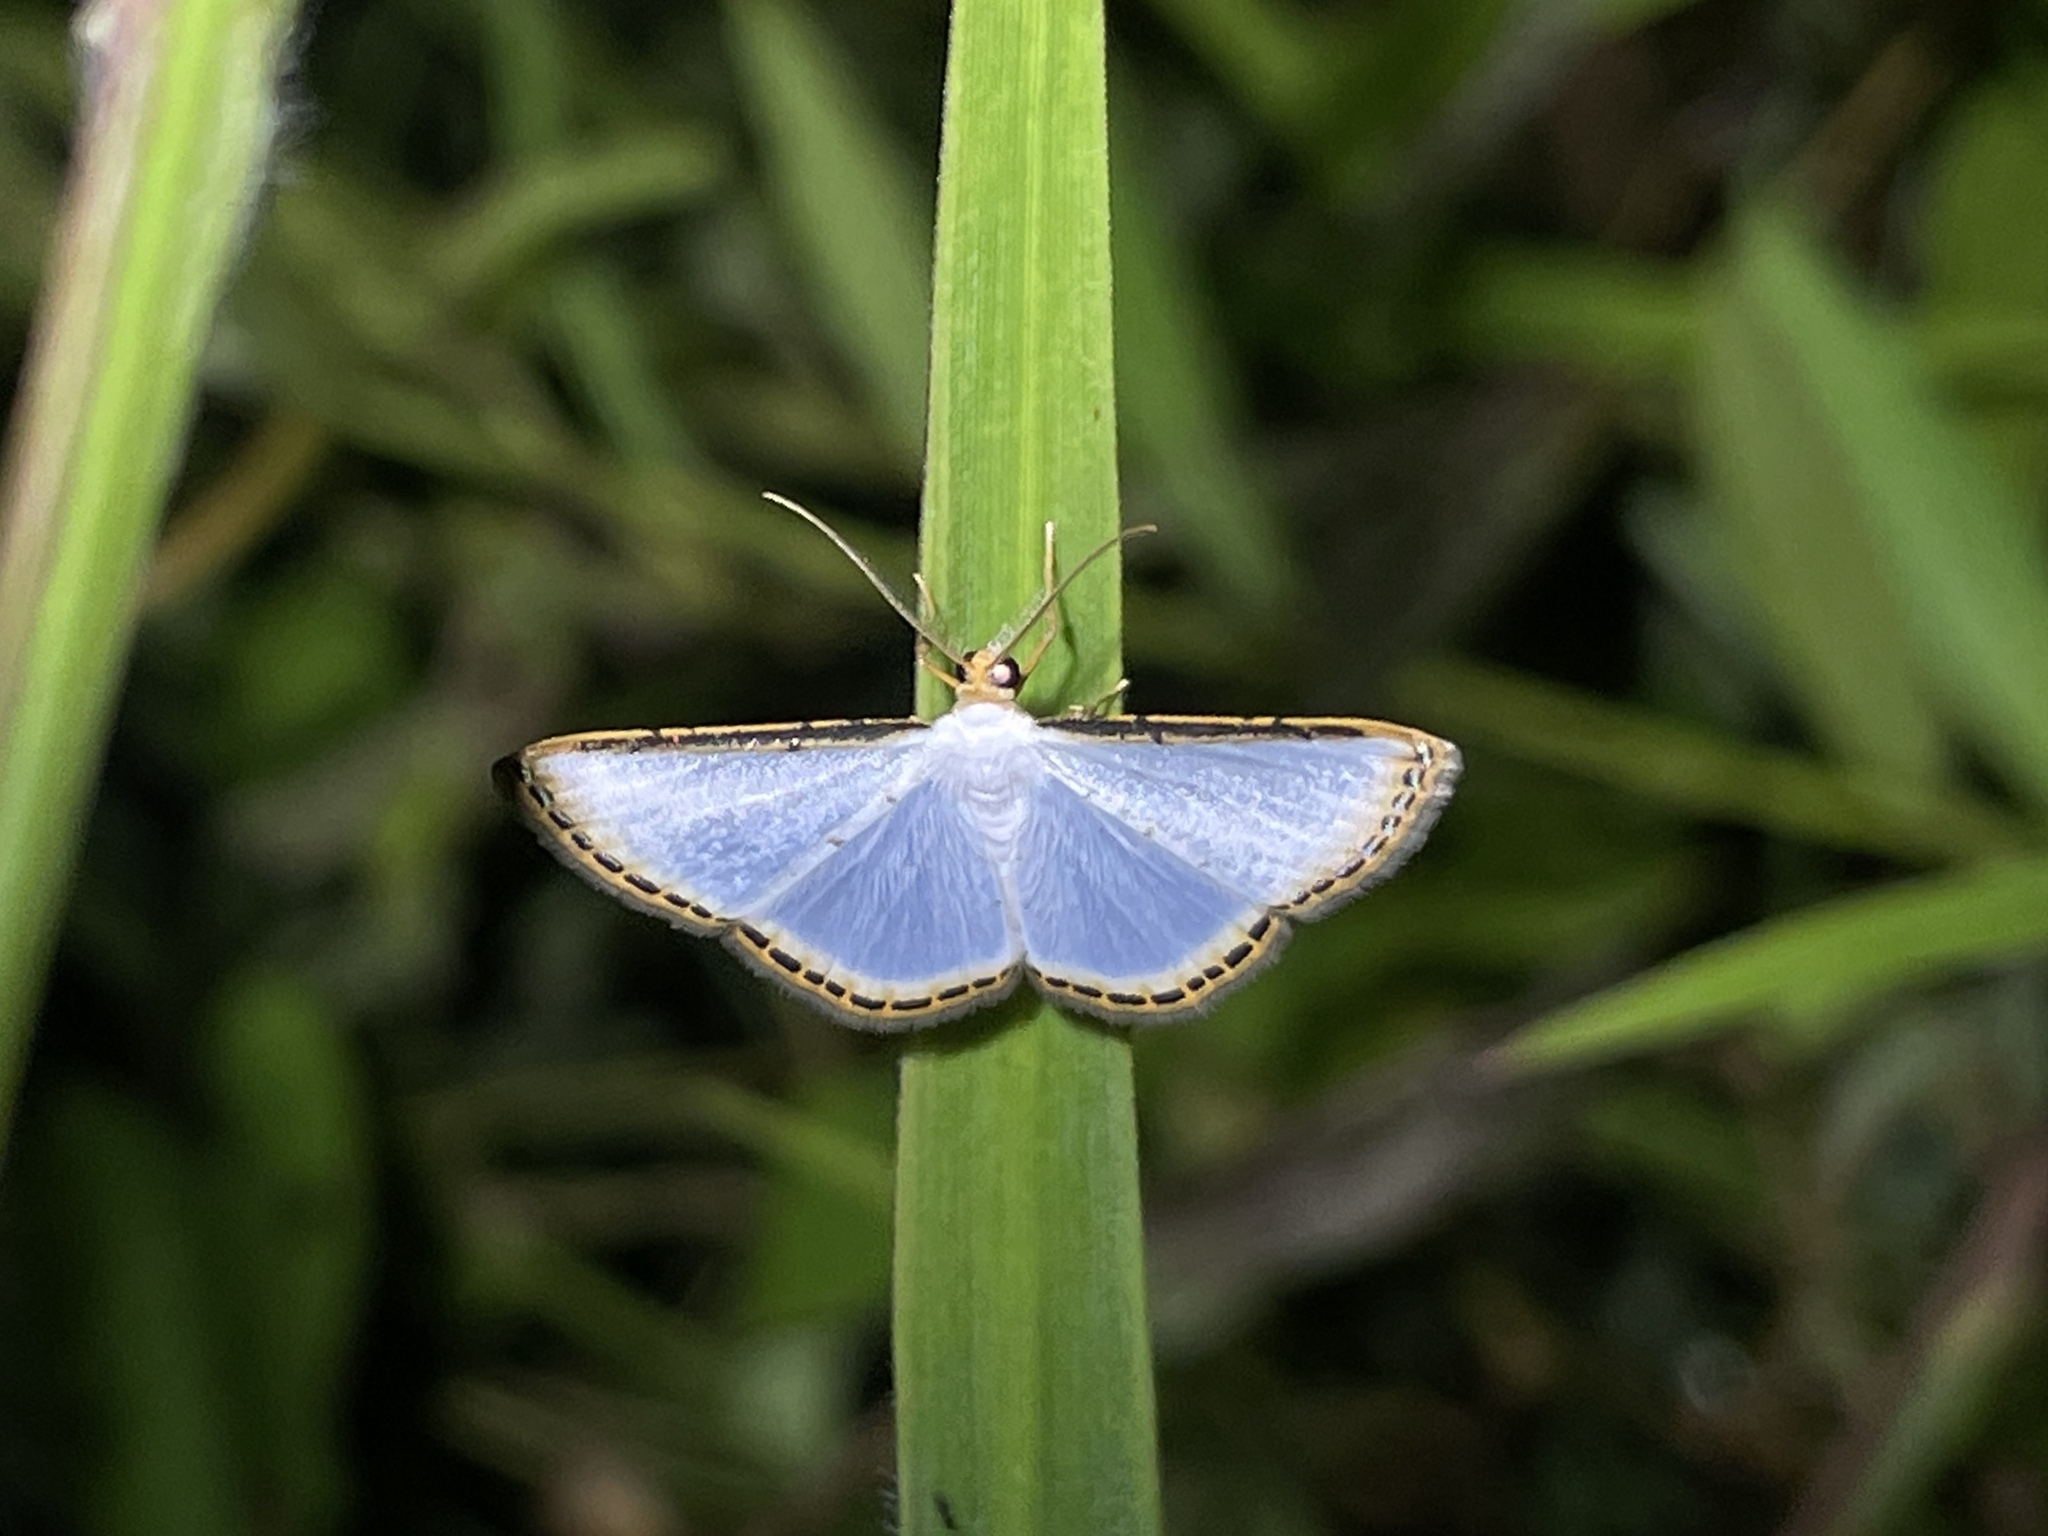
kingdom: Animalia
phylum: Arthropoda
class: Insecta
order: Lepidoptera
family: Geometridae
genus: Leuciris
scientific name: Leuciris fimbriaria
